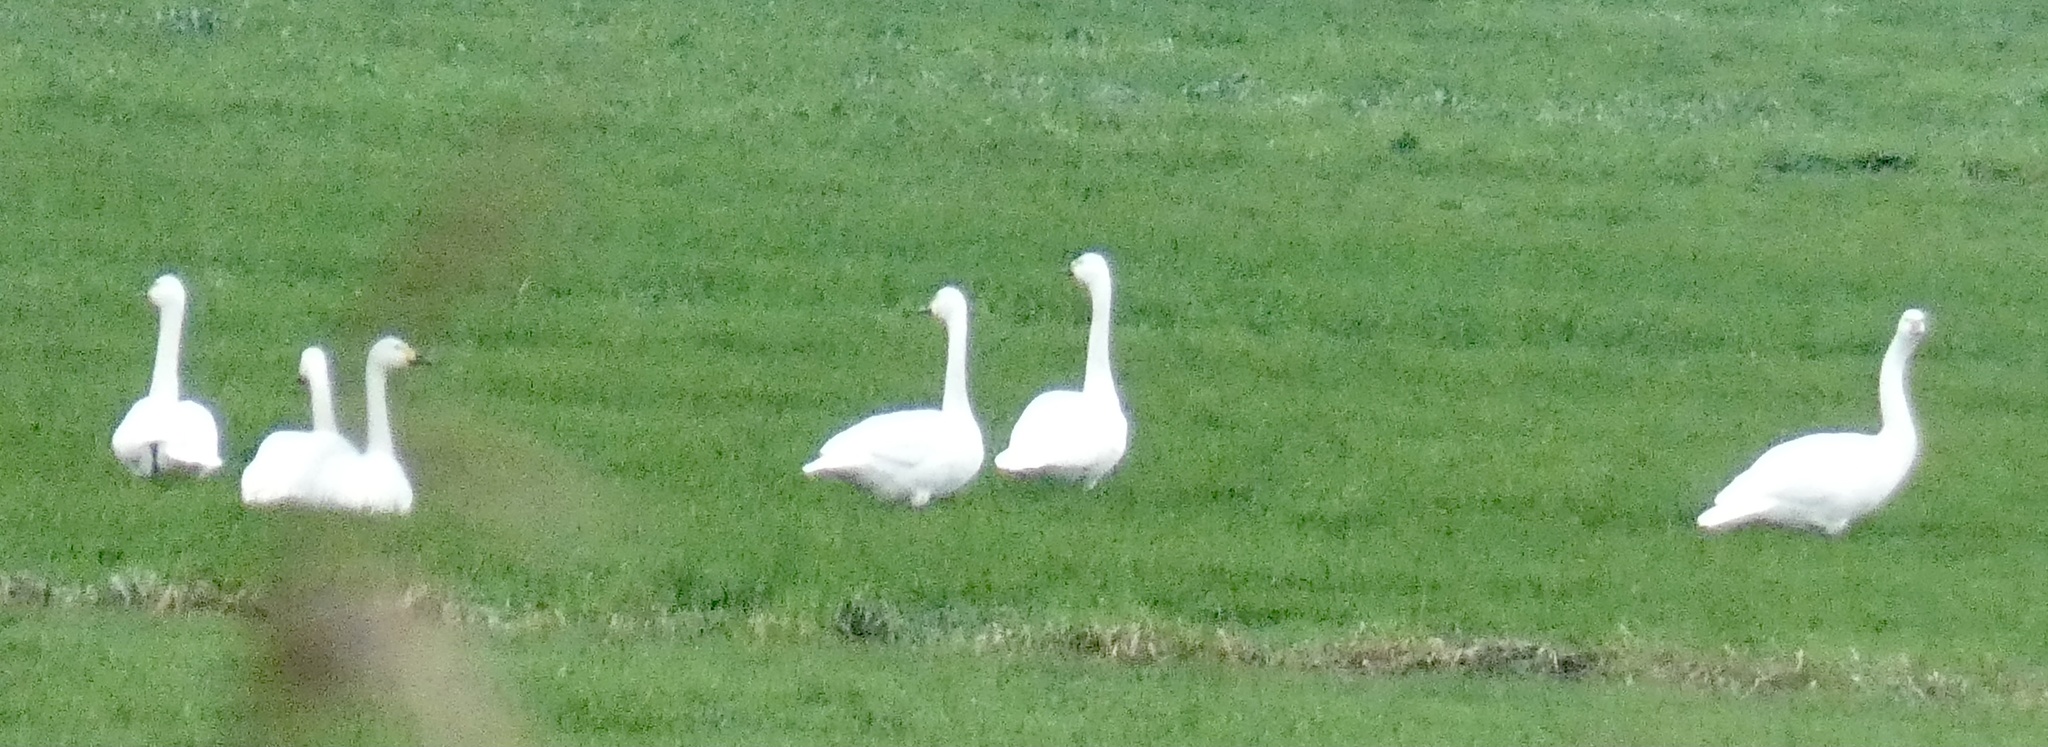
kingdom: Animalia
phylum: Chordata
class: Aves
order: Anseriformes
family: Anatidae
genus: Cygnus
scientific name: Cygnus columbianus
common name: Tundra swan
